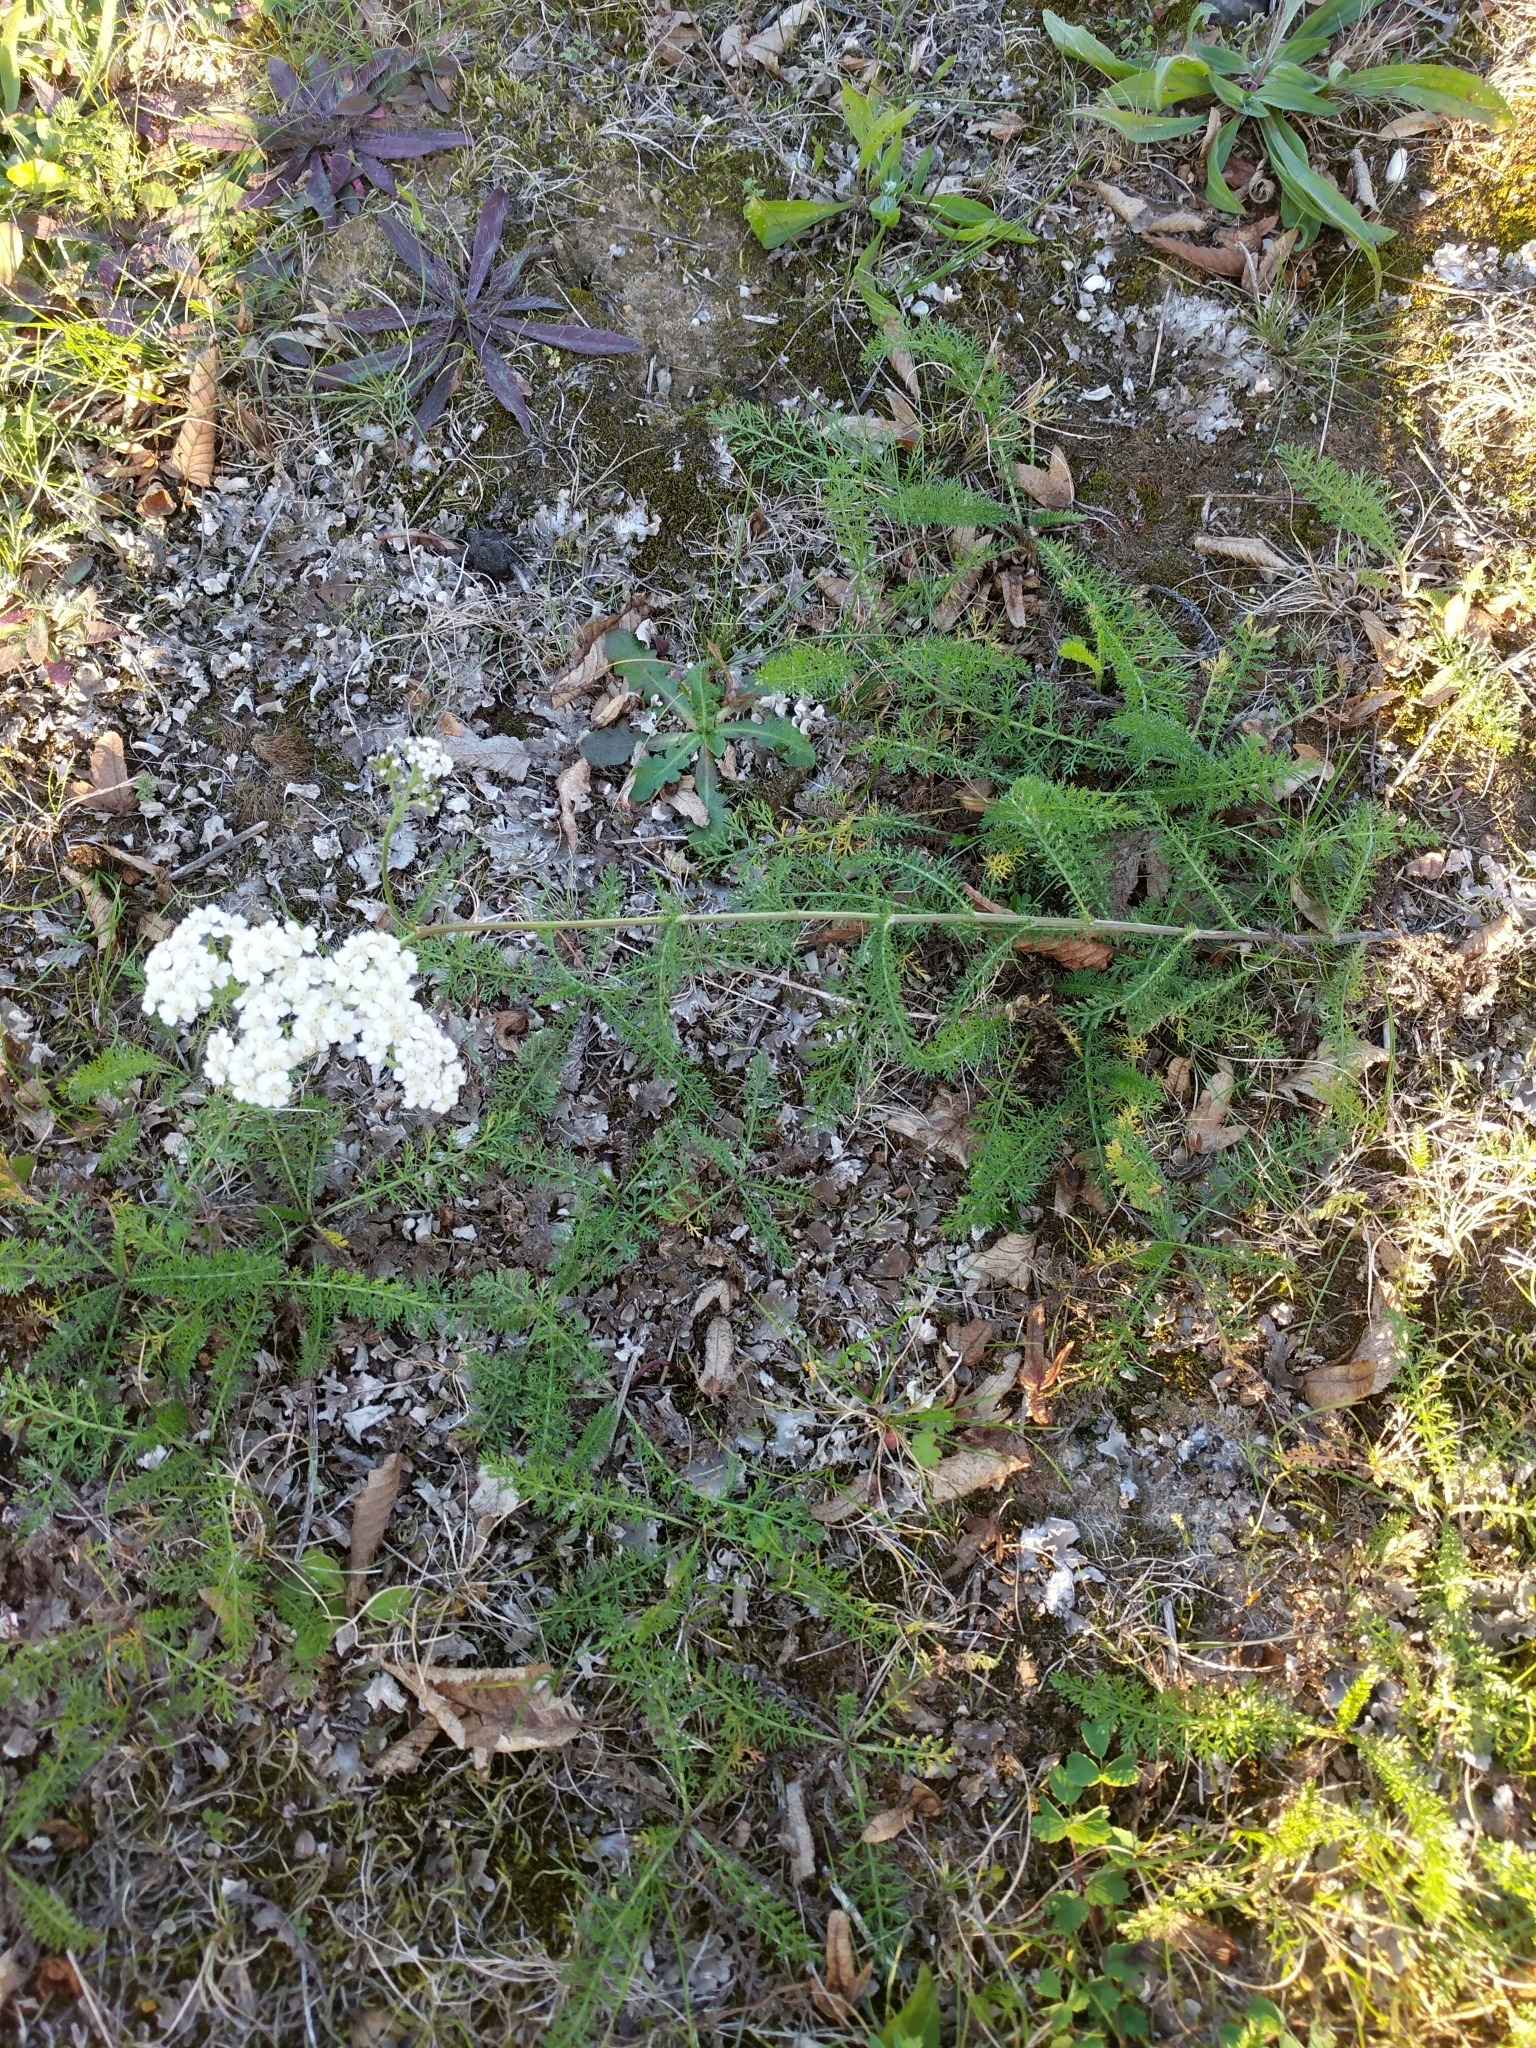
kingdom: Plantae
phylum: Tracheophyta
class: Magnoliopsida
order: Asterales
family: Asteraceae
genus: Achillea
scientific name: Achillea millefolium
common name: Yarrow
